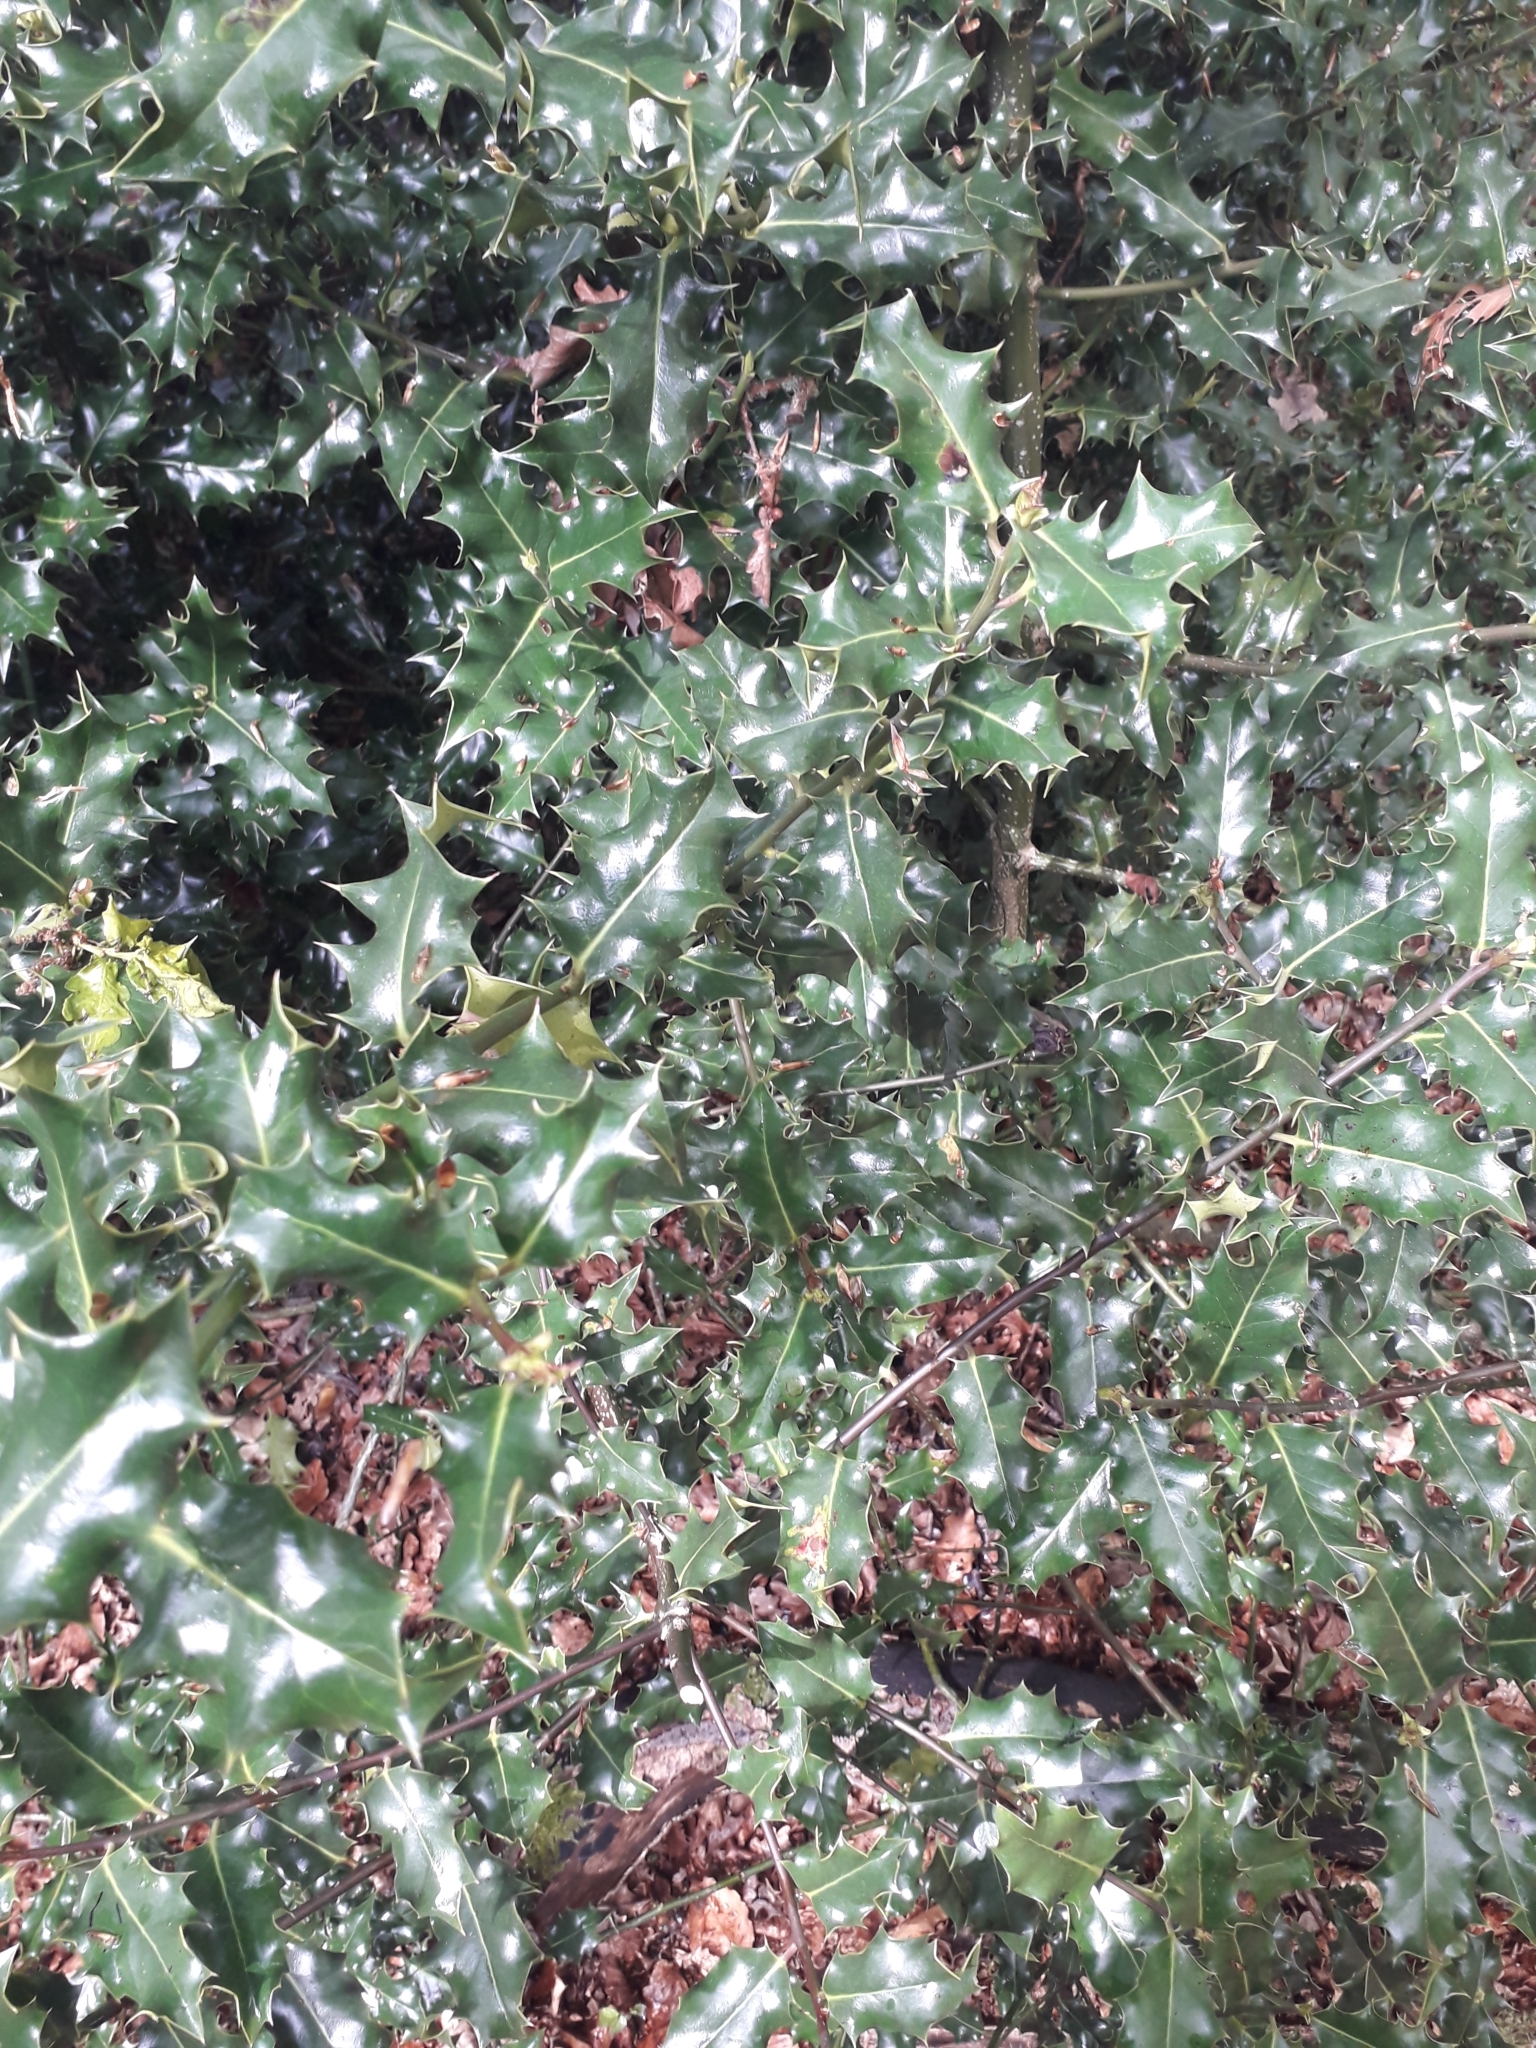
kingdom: Plantae
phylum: Tracheophyta
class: Magnoliopsida
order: Aquifoliales
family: Aquifoliaceae
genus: Ilex
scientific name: Ilex aquifolium
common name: English holly
